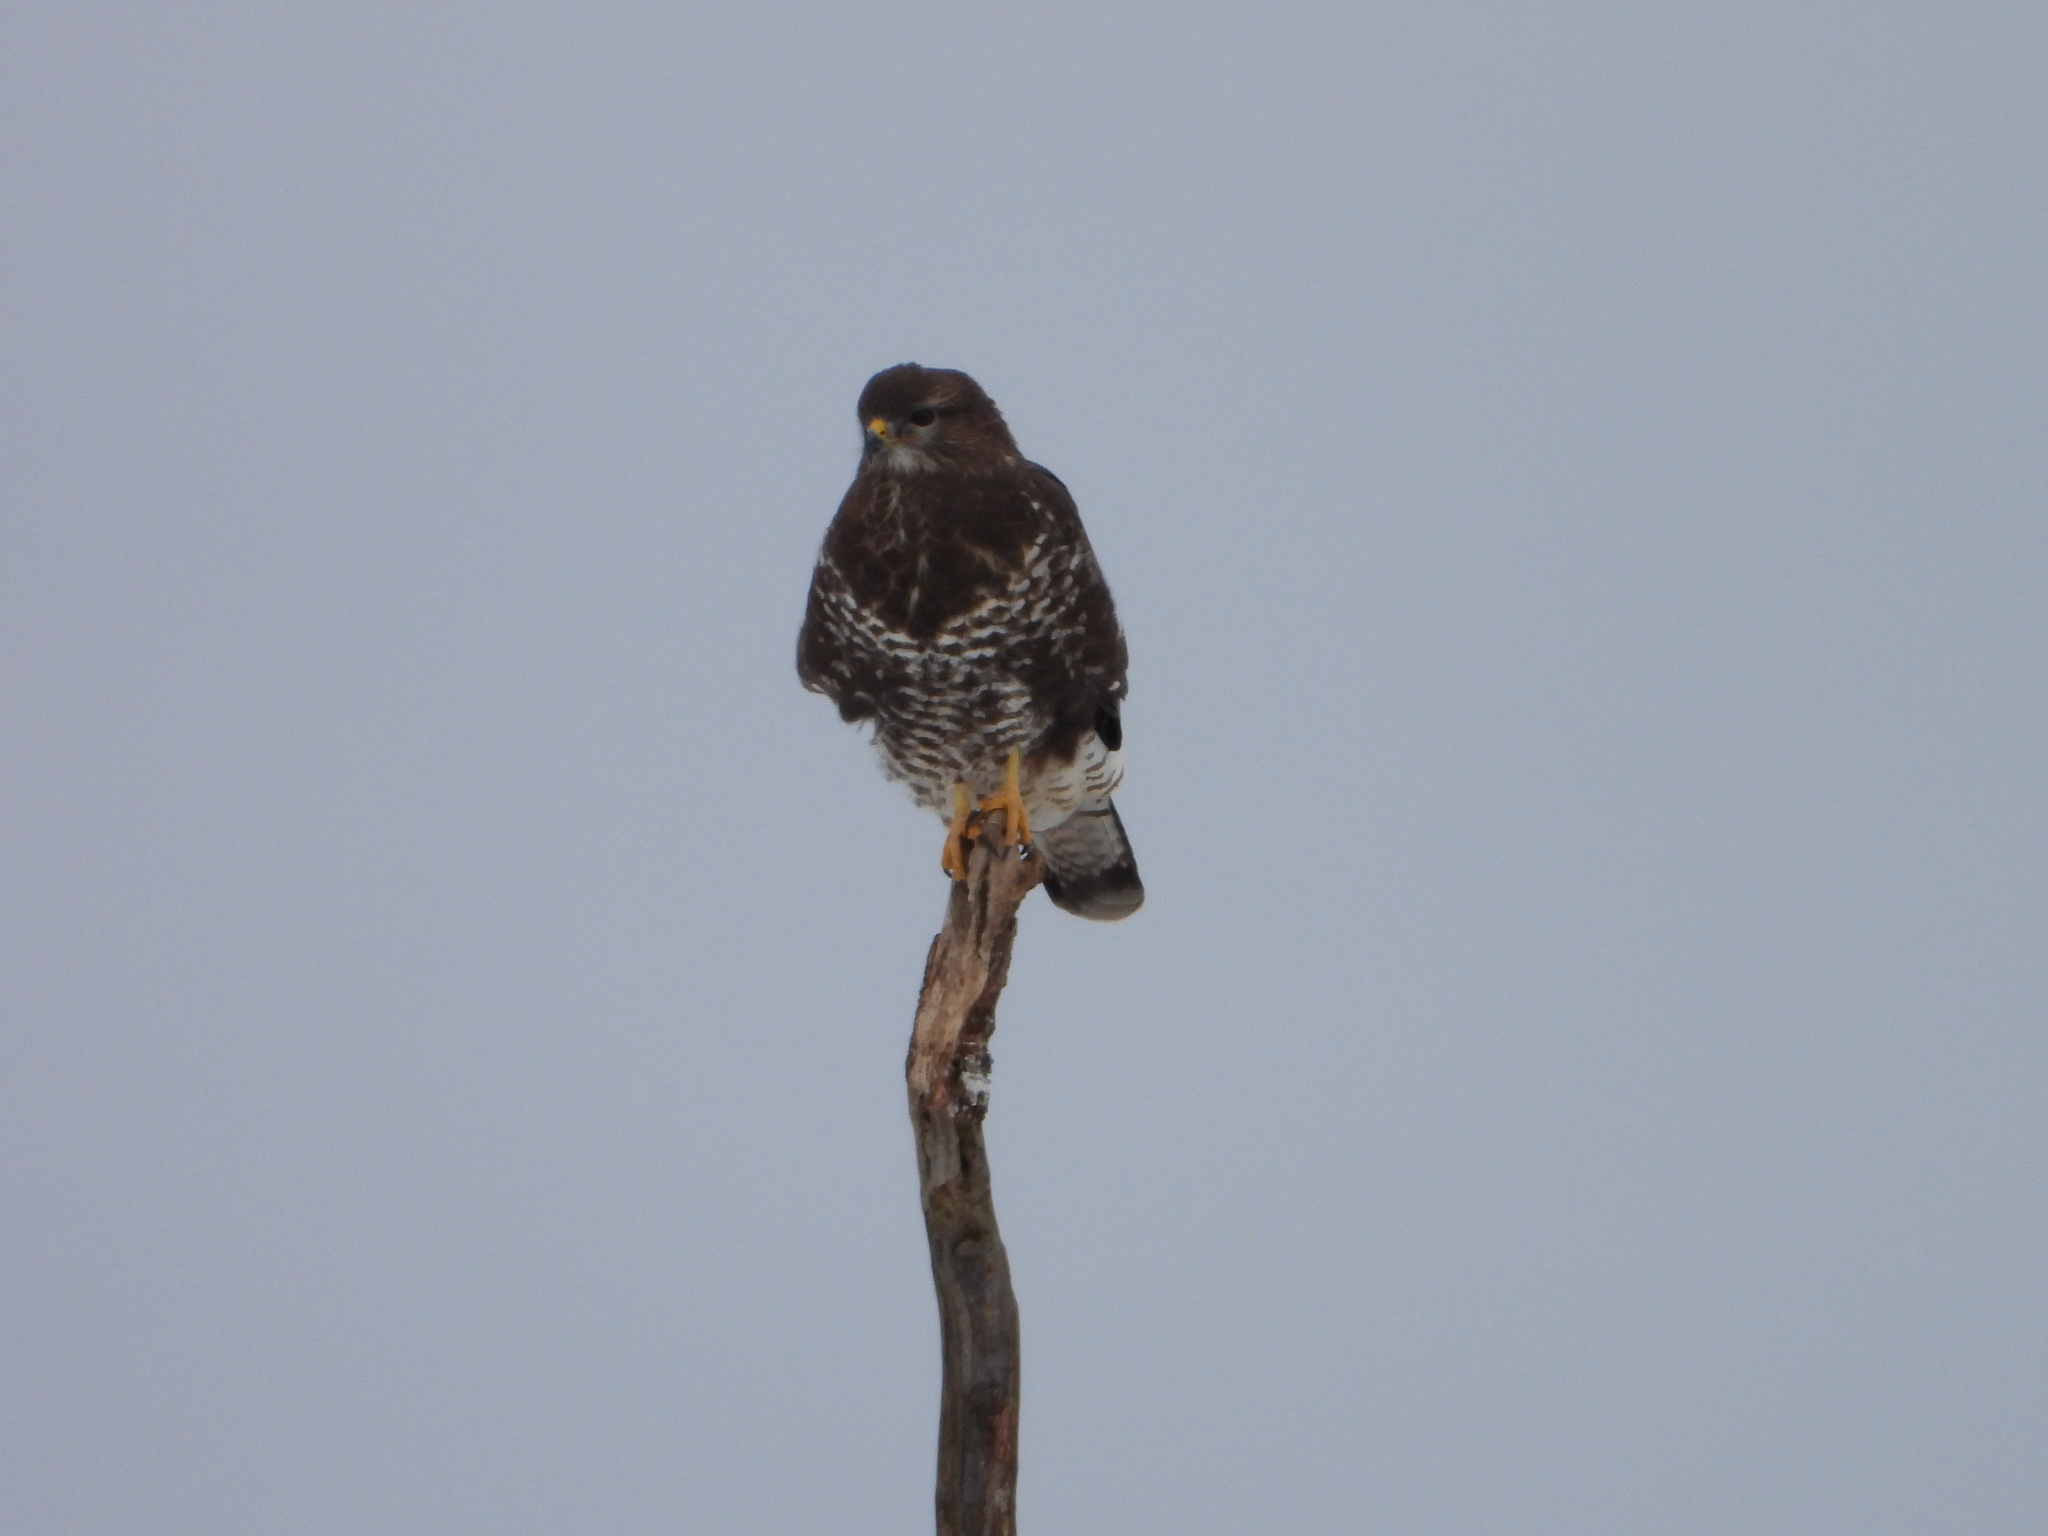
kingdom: Animalia
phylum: Chordata
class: Aves
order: Accipitriformes
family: Accipitridae
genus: Buteo
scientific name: Buteo buteo
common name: Common buzzard
